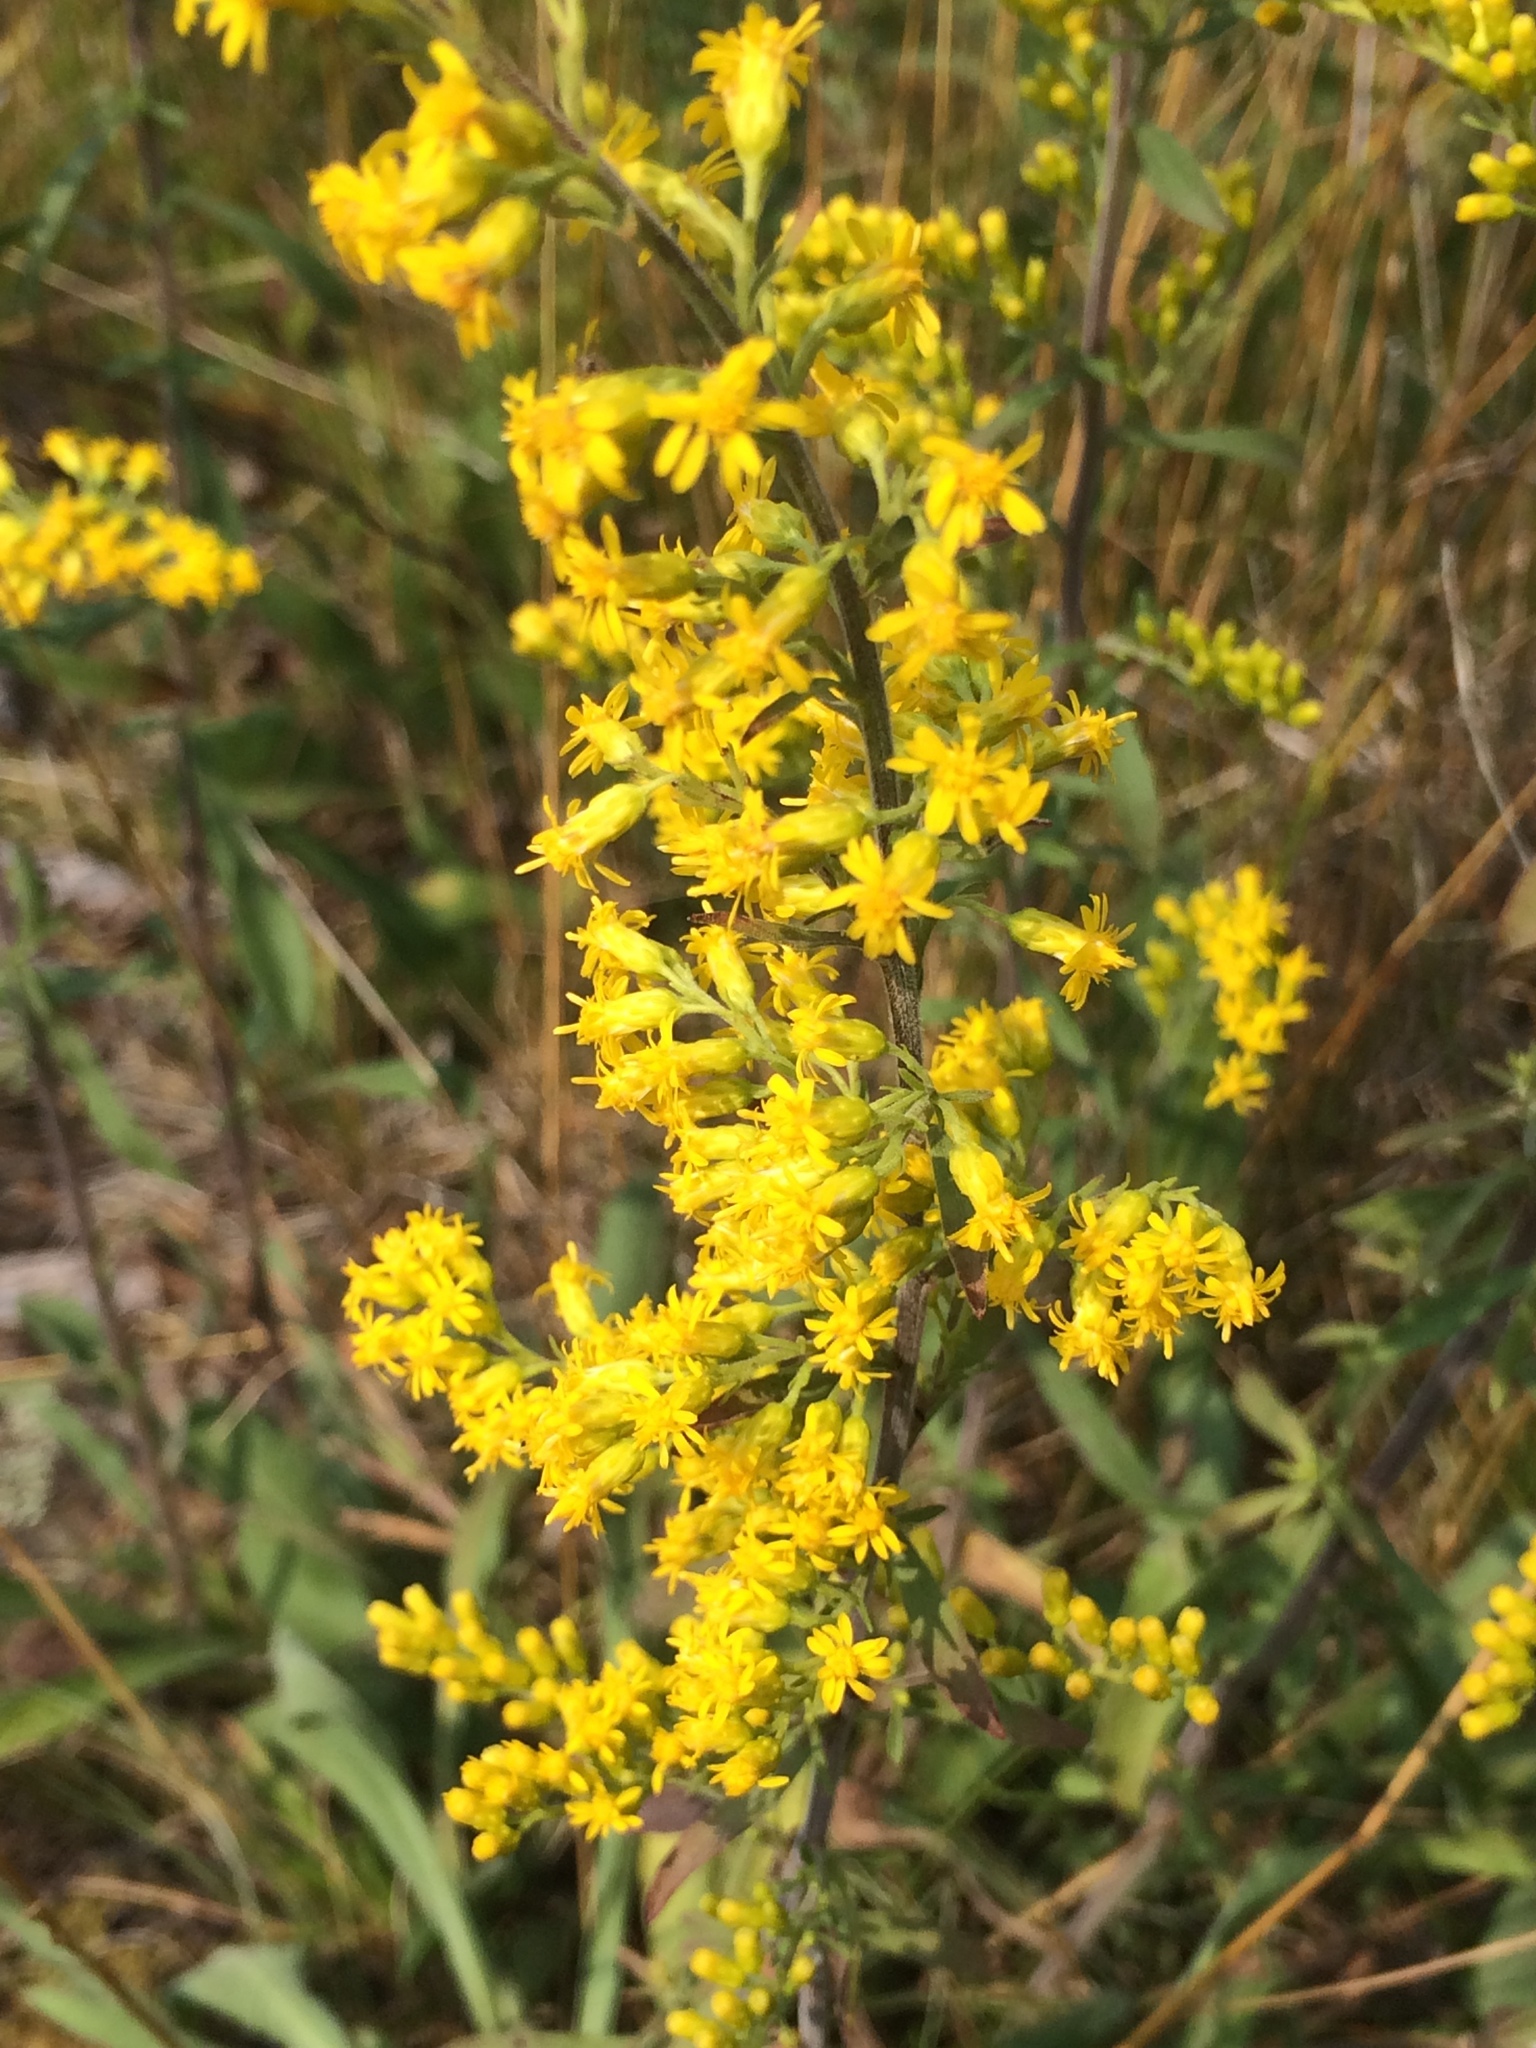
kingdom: Plantae
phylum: Tracheophyta
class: Magnoliopsida
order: Asterales
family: Asteraceae
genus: Solidago
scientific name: Solidago nemoralis
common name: Grey goldenrod
